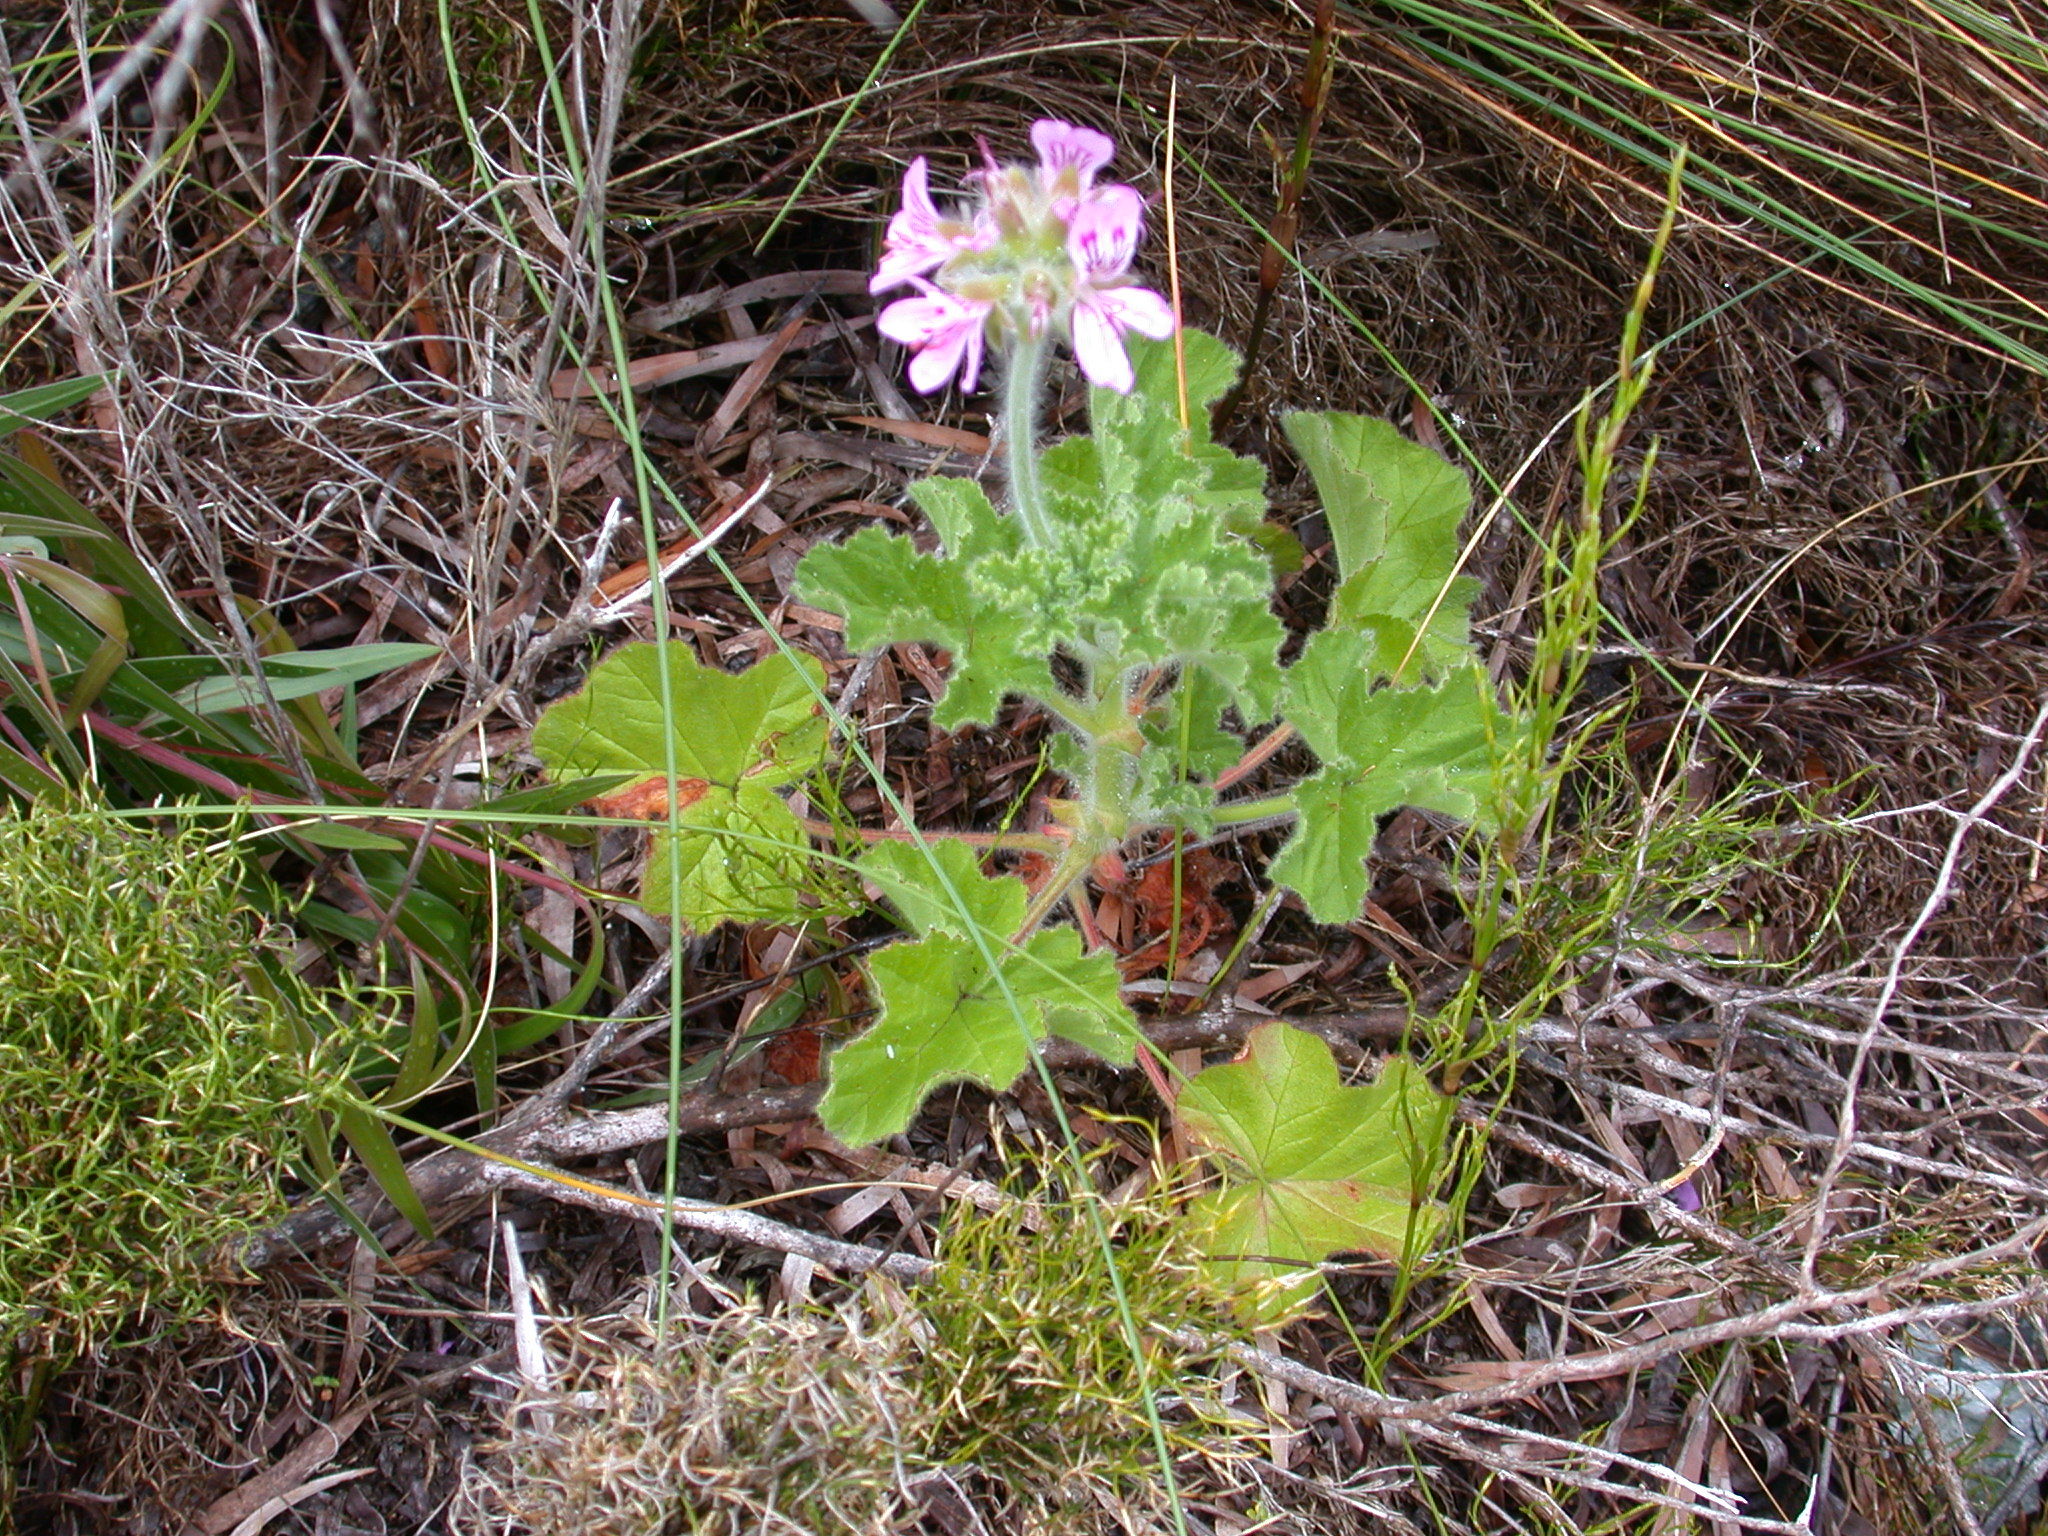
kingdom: Plantae
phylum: Tracheophyta
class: Magnoliopsida
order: Geraniales
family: Geraniaceae
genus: Pelargonium
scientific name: Pelargonium capitatum
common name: Rose scented geranium
